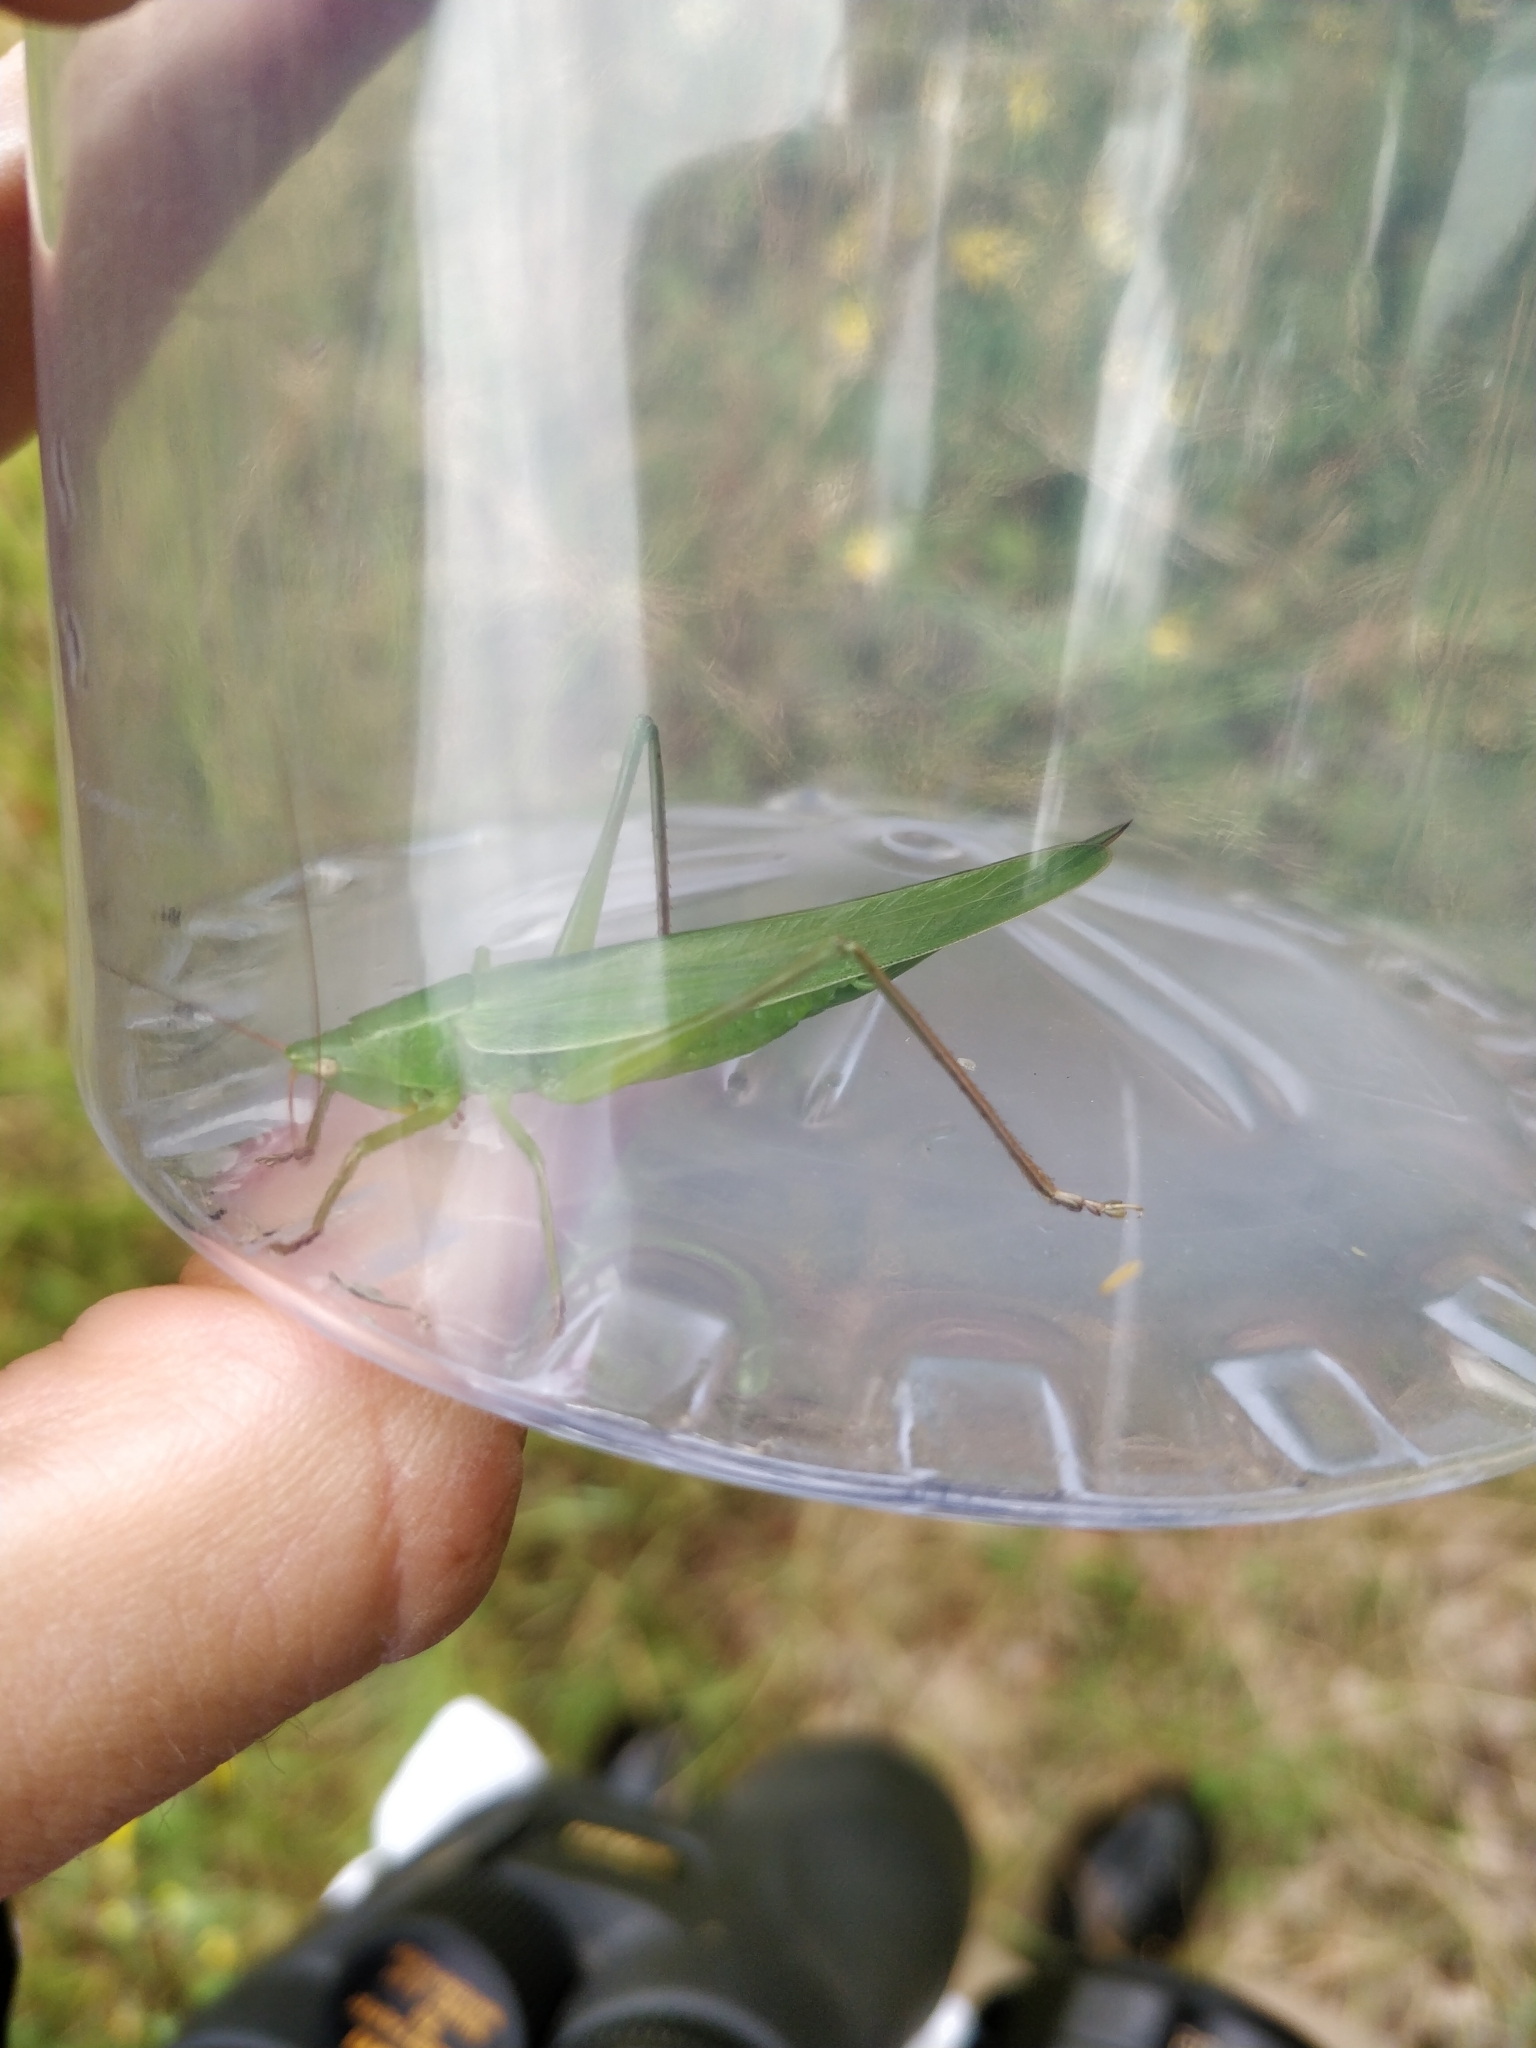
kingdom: Animalia
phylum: Arthropoda
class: Insecta
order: Orthoptera
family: Tettigoniidae
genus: Ruspolia
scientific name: Ruspolia nitidula
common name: Large conehead
